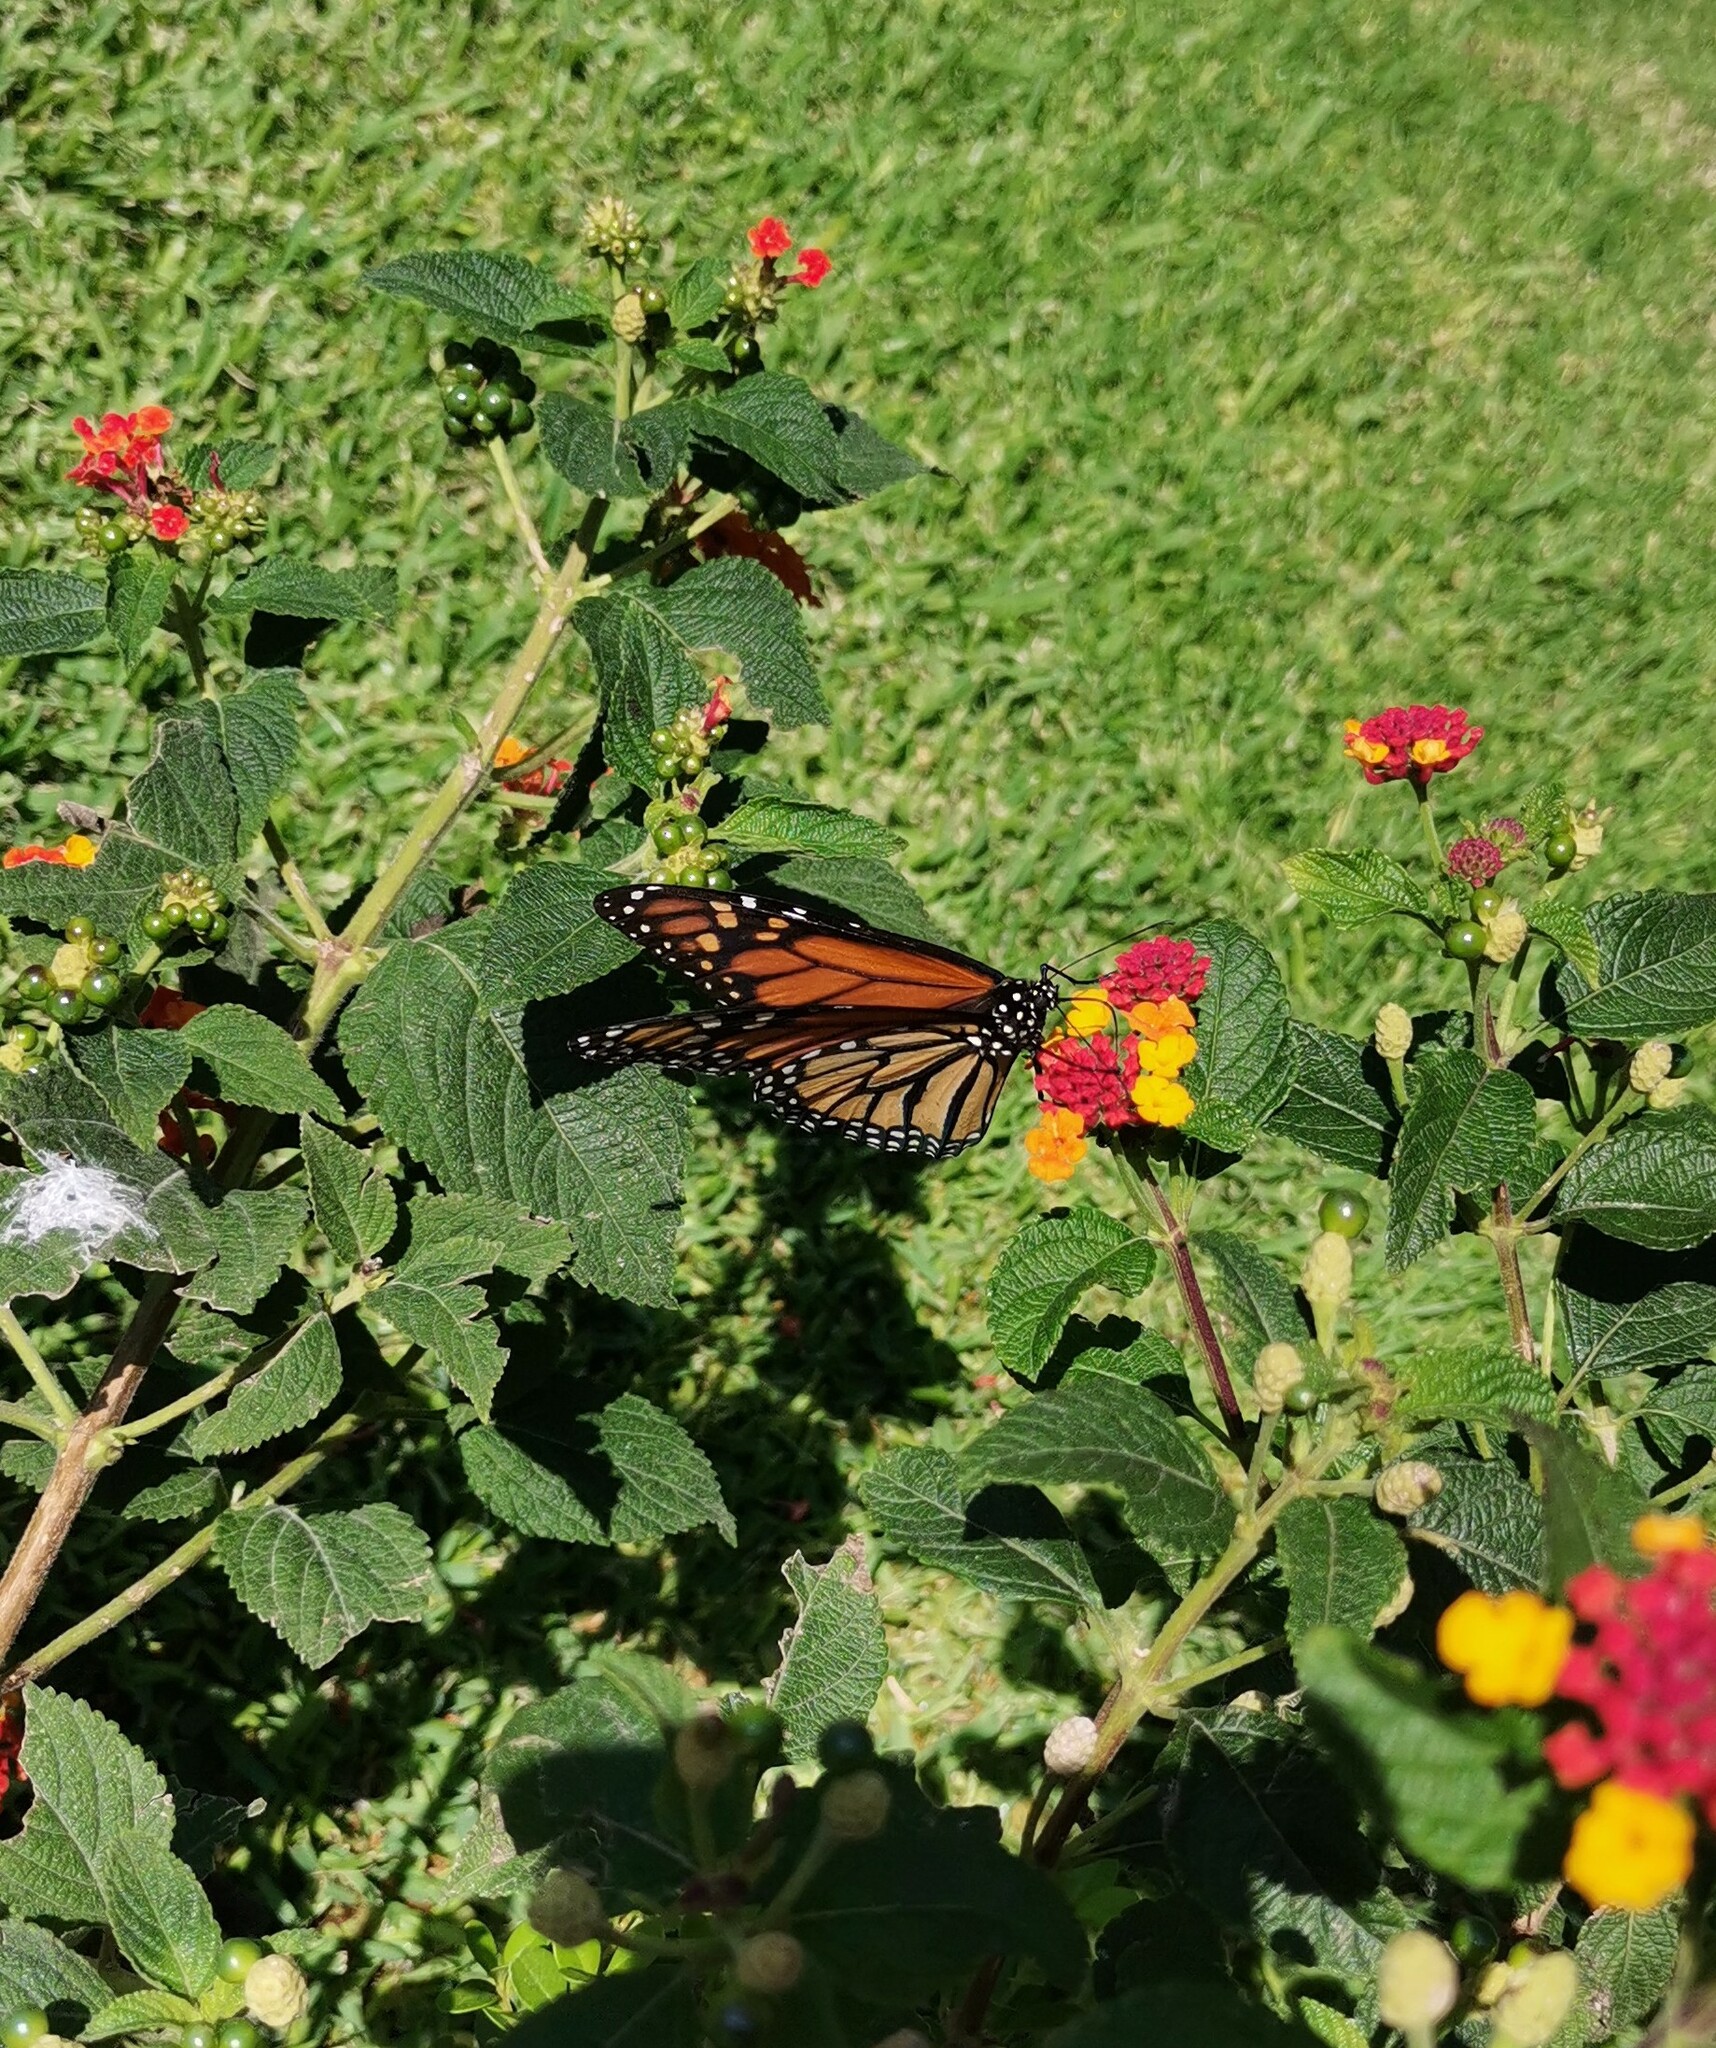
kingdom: Animalia
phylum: Arthropoda
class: Insecta
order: Lepidoptera
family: Nymphalidae
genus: Danaus
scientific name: Danaus plexippus
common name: Monarch
